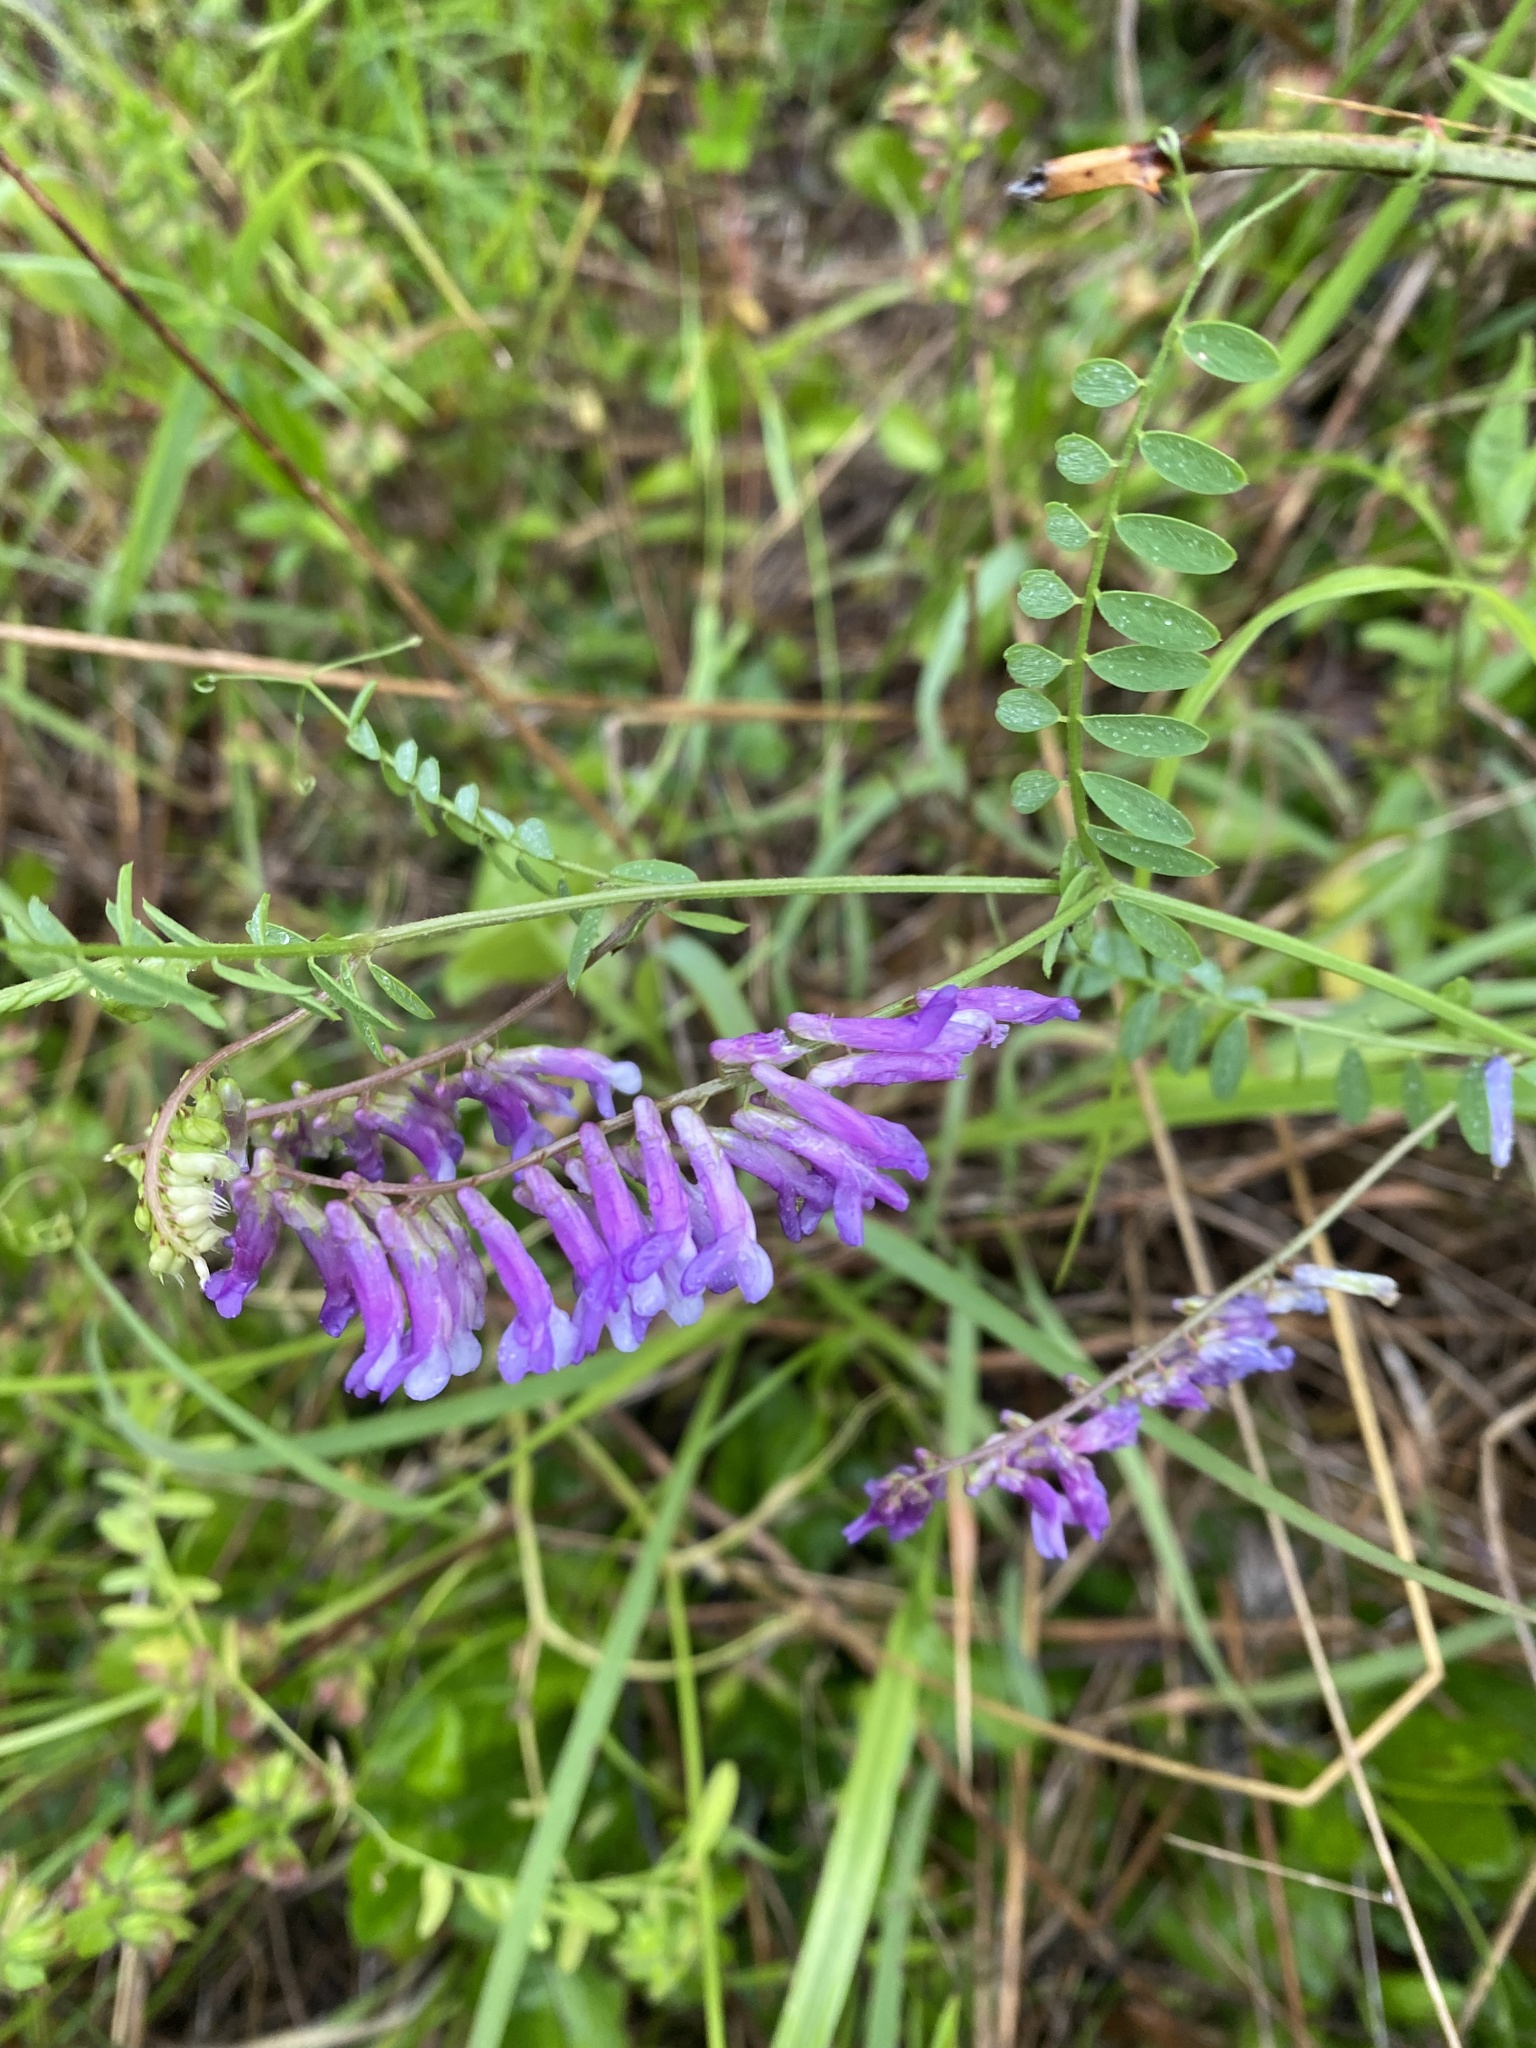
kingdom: Plantae
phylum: Tracheophyta
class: Magnoliopsida
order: Fabales
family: Fabaceae
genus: Vicia
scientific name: Vicia villosa
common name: Fodder vetch
